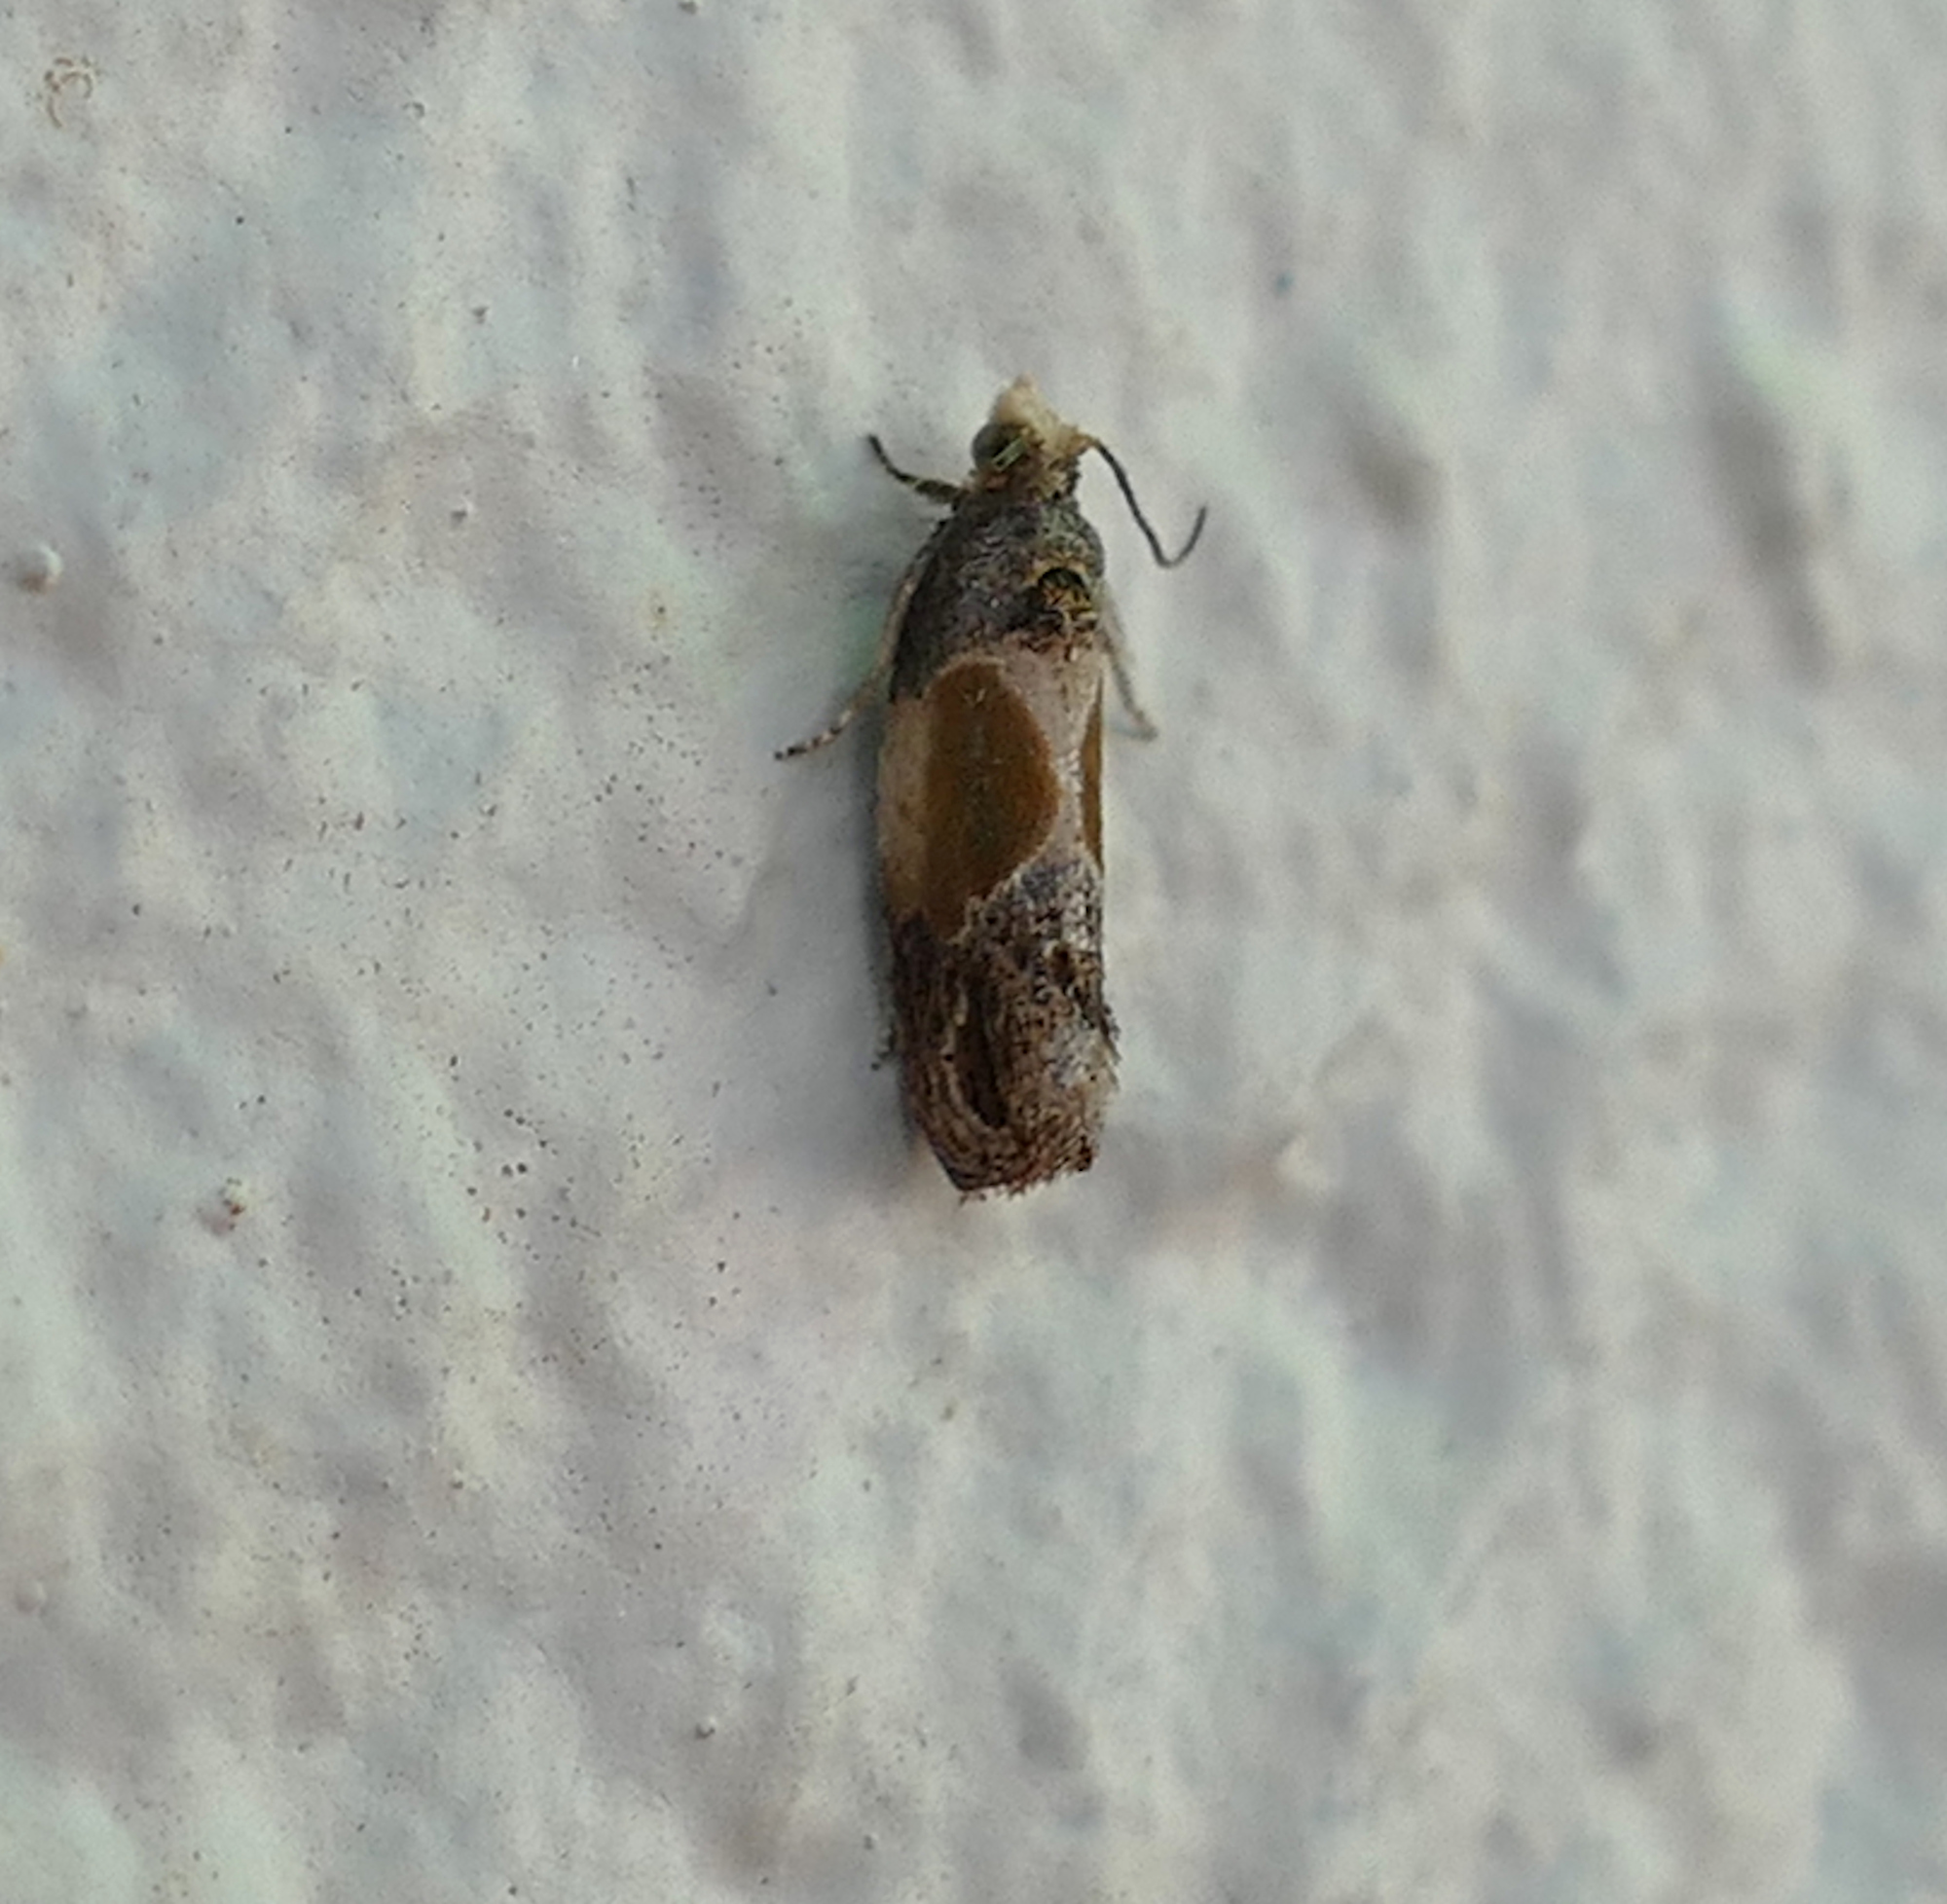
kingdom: Animalia
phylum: Arthropoda
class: Insecta
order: Lepidoptera
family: Tortricidae
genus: Eumarozia
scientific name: Eumarozia malachitana
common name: Sculptured moth
